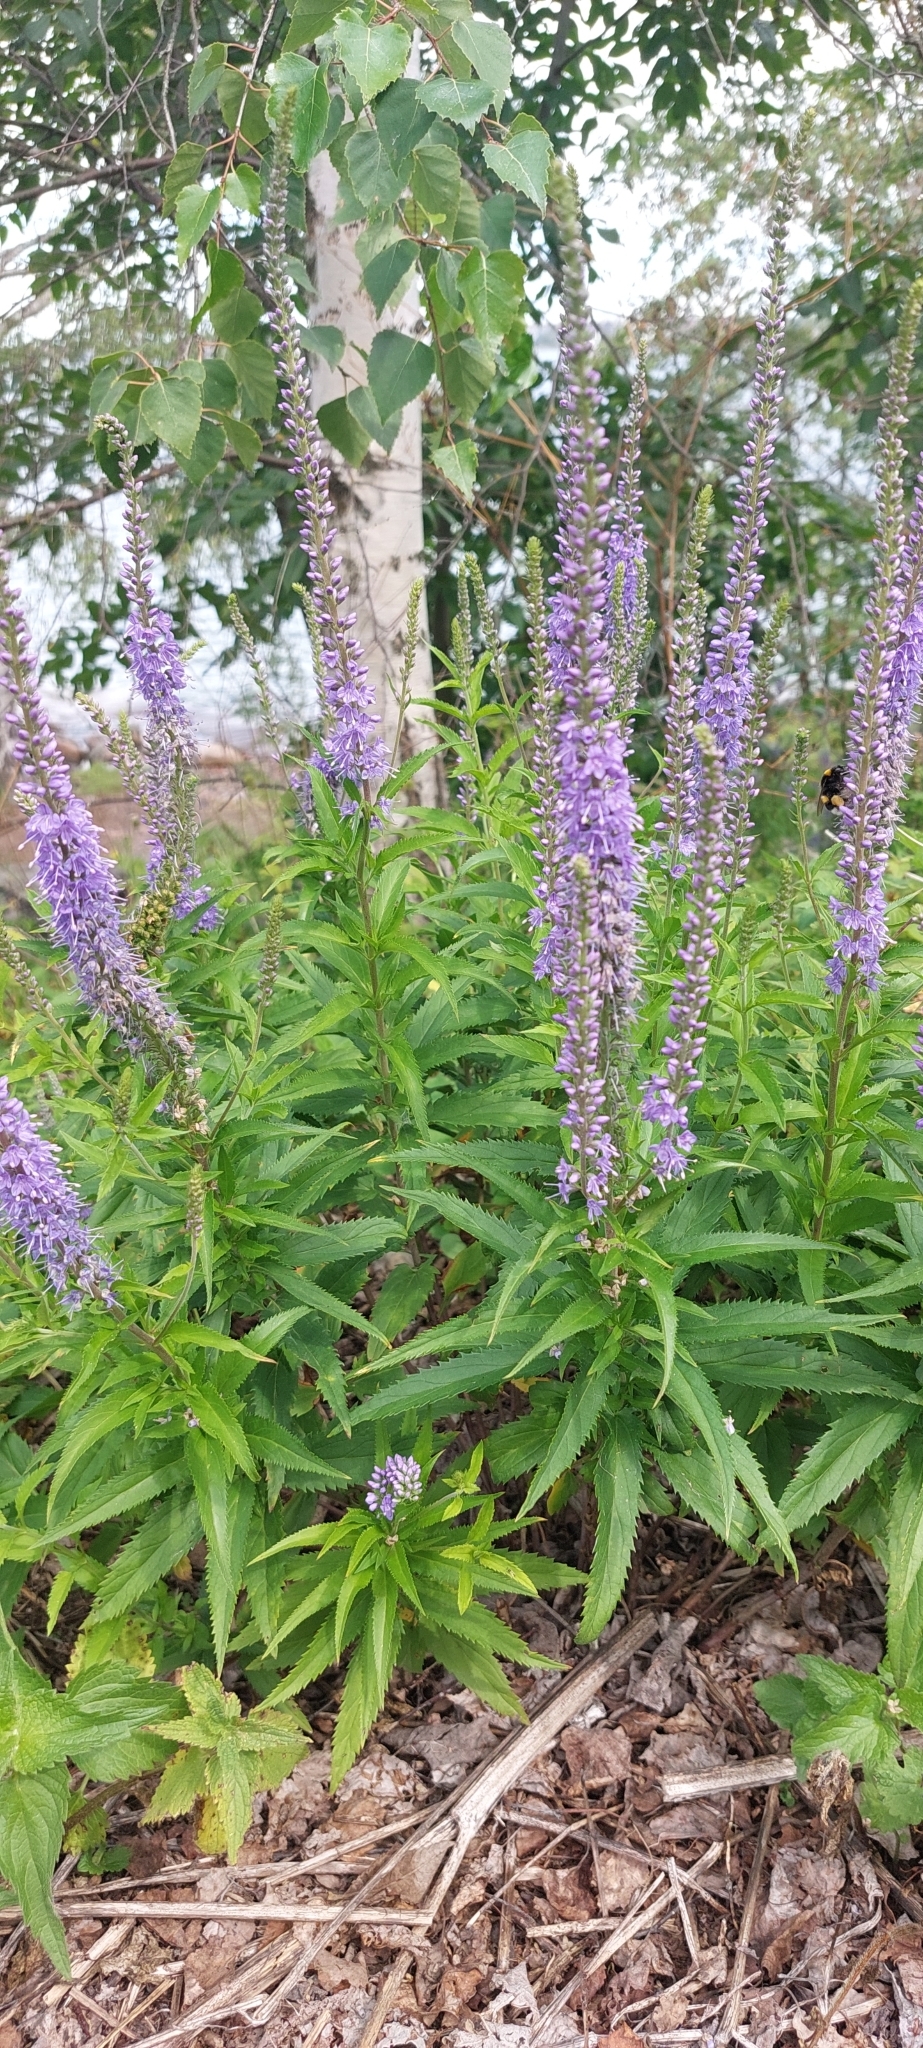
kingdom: Plantae
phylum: Tracheophyta
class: Magnoliopsida
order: Lamiales
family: Plantaginaceae
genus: Veronica
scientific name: Veronica longifolia
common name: Garden speedwell
